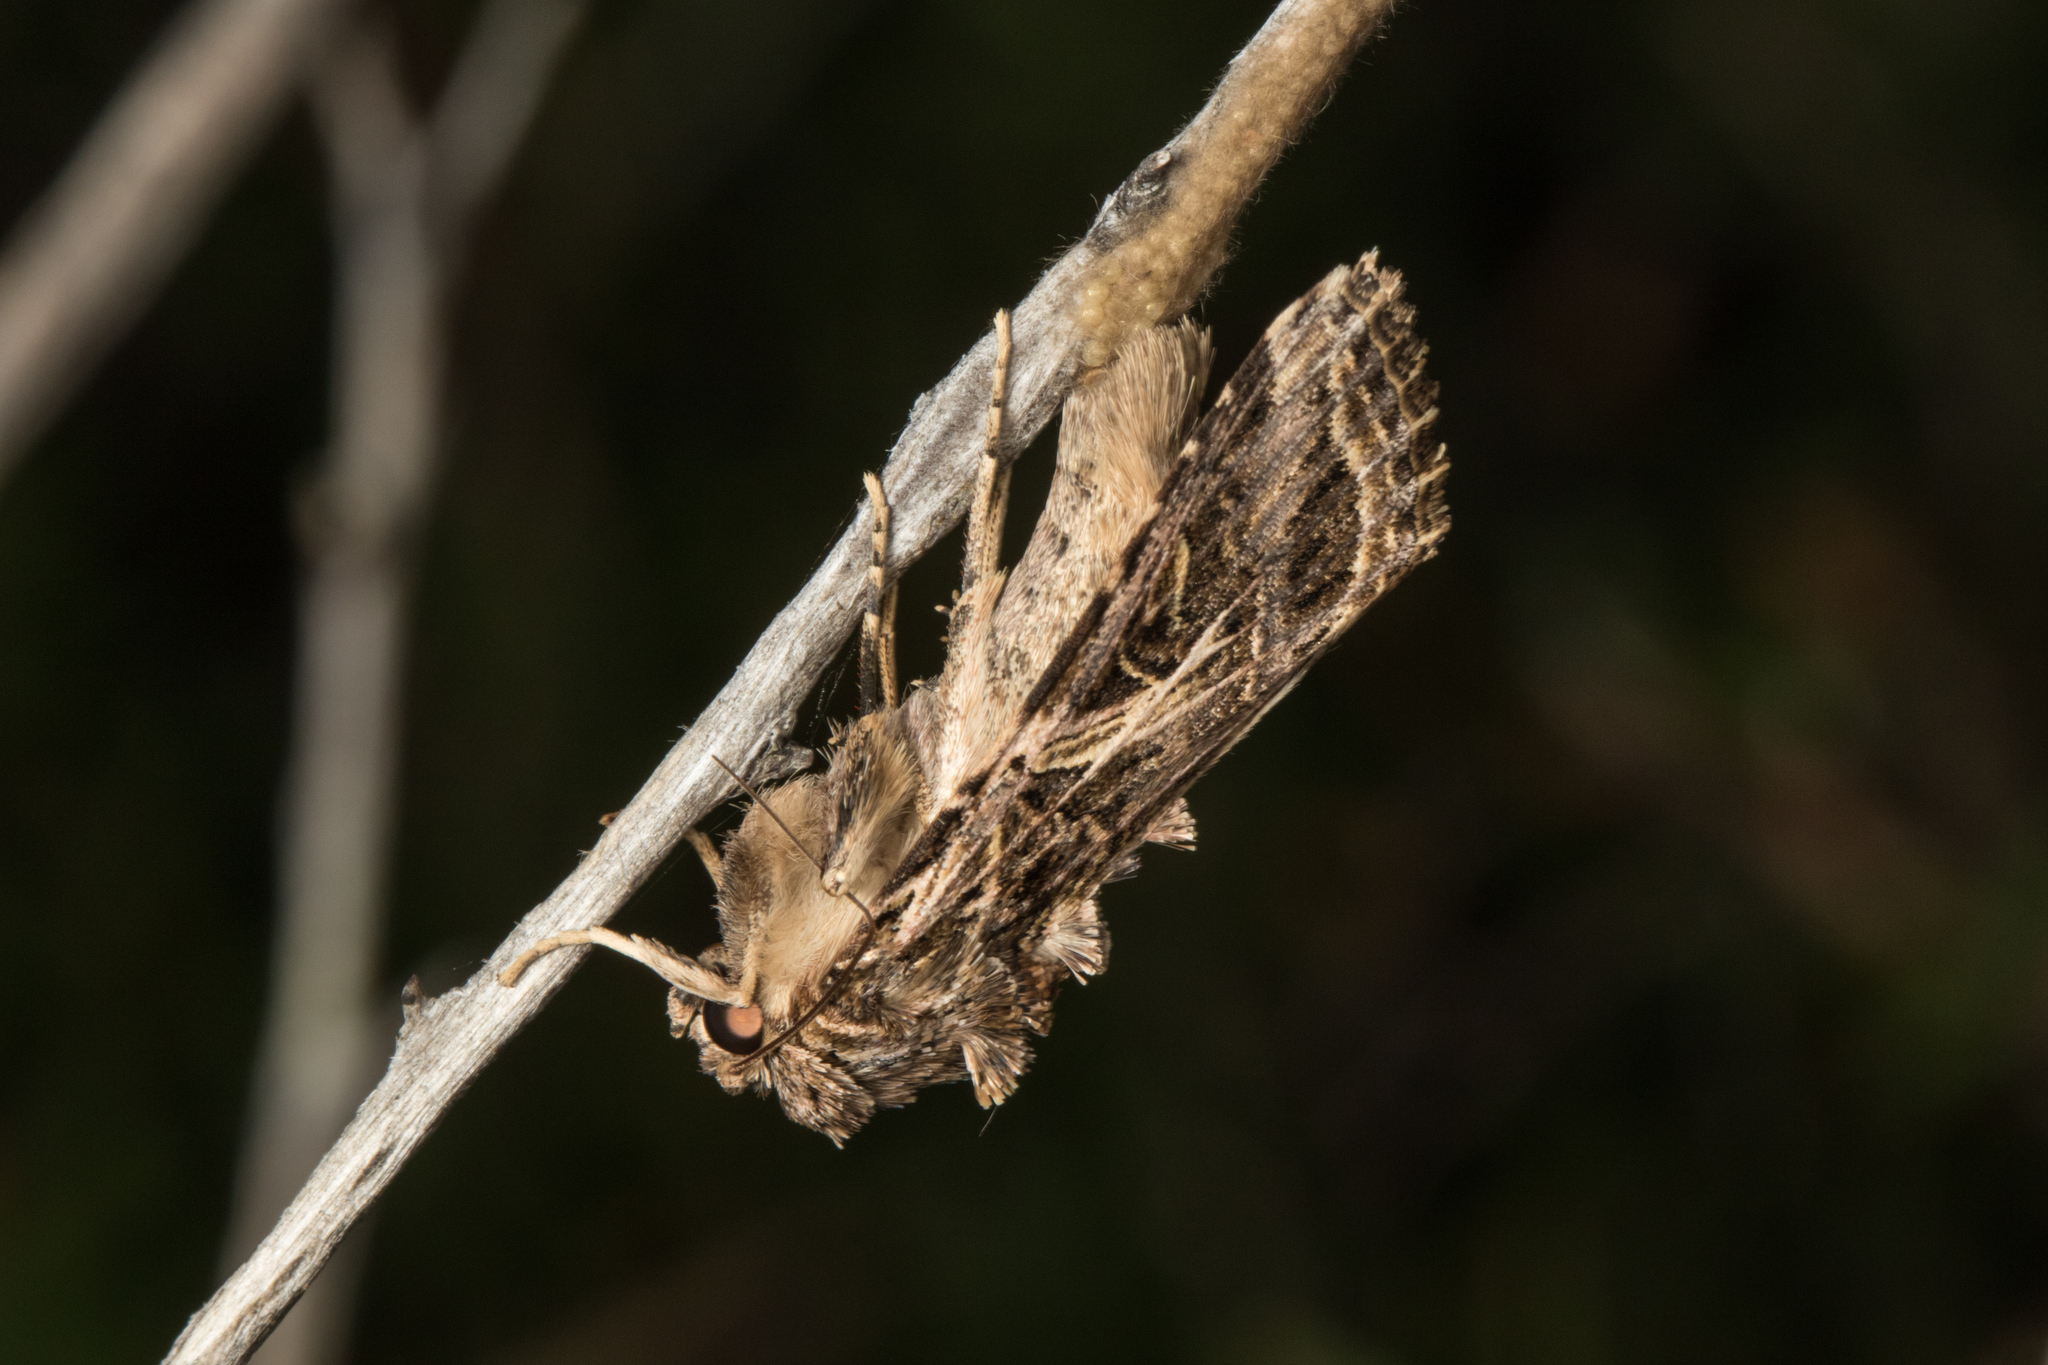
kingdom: Animalia
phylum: Arthropoda
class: Insecta
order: Lepidoptera
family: Noctuidae
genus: Spodoptera
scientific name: Spodoptera litura
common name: Asian cotton leafworm
